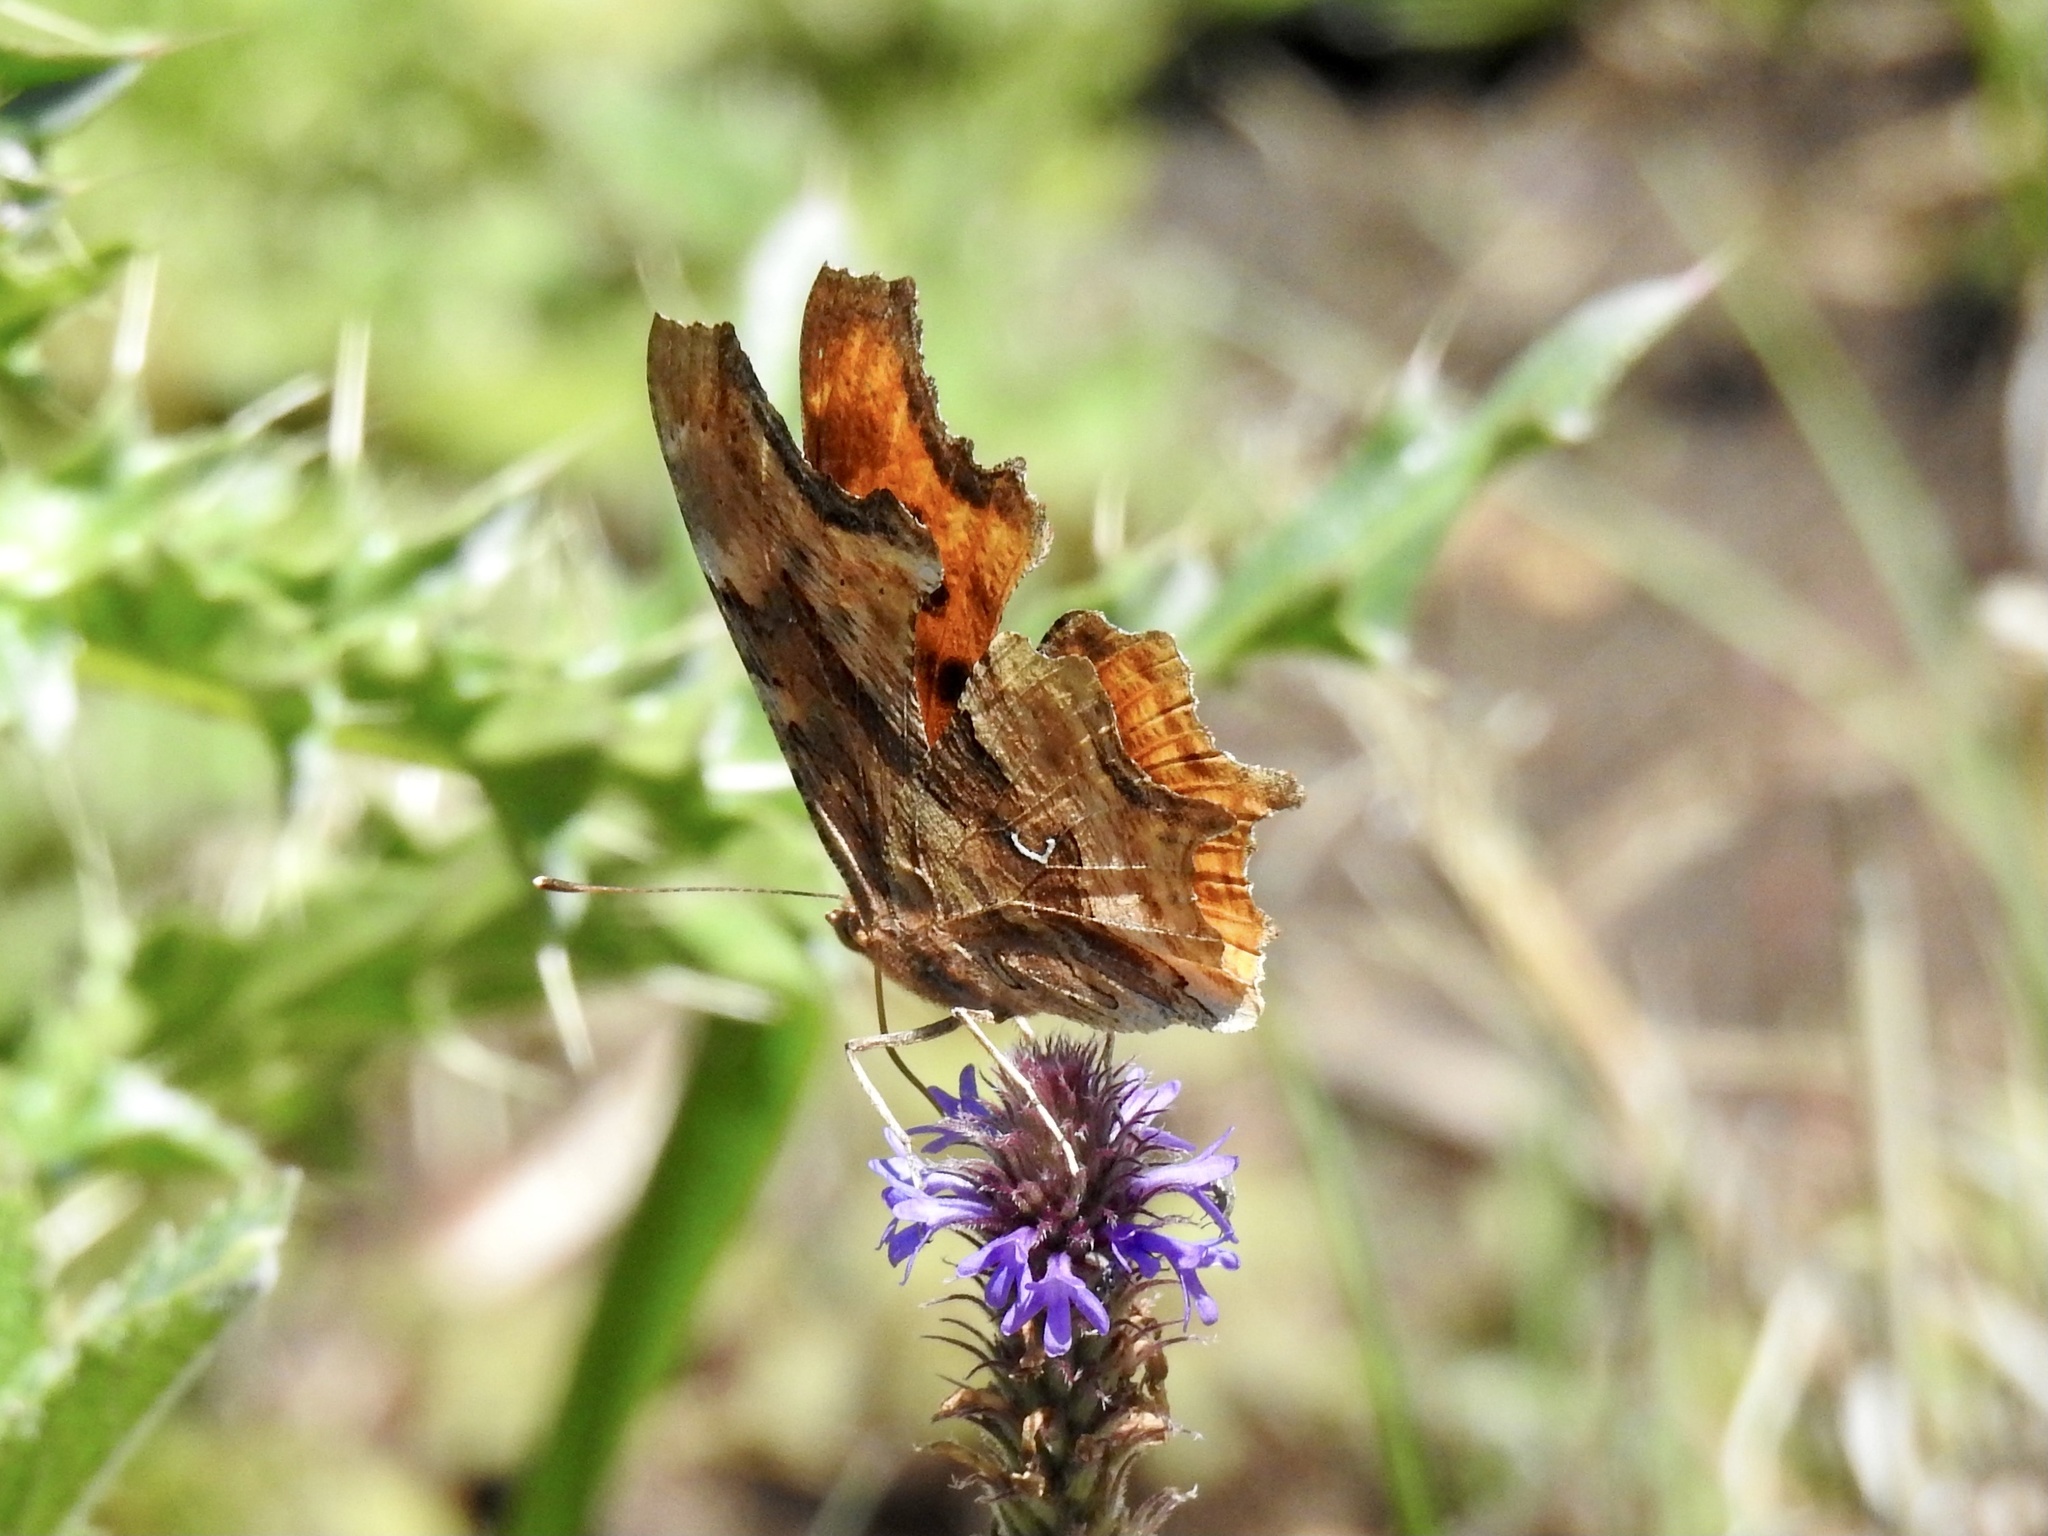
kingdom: Animalia
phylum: Arthropoda
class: Insecta
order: Lepidoptera
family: Nymphalidae
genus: Polygonia
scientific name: Polygonia satyrus
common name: Satyr angle wing
